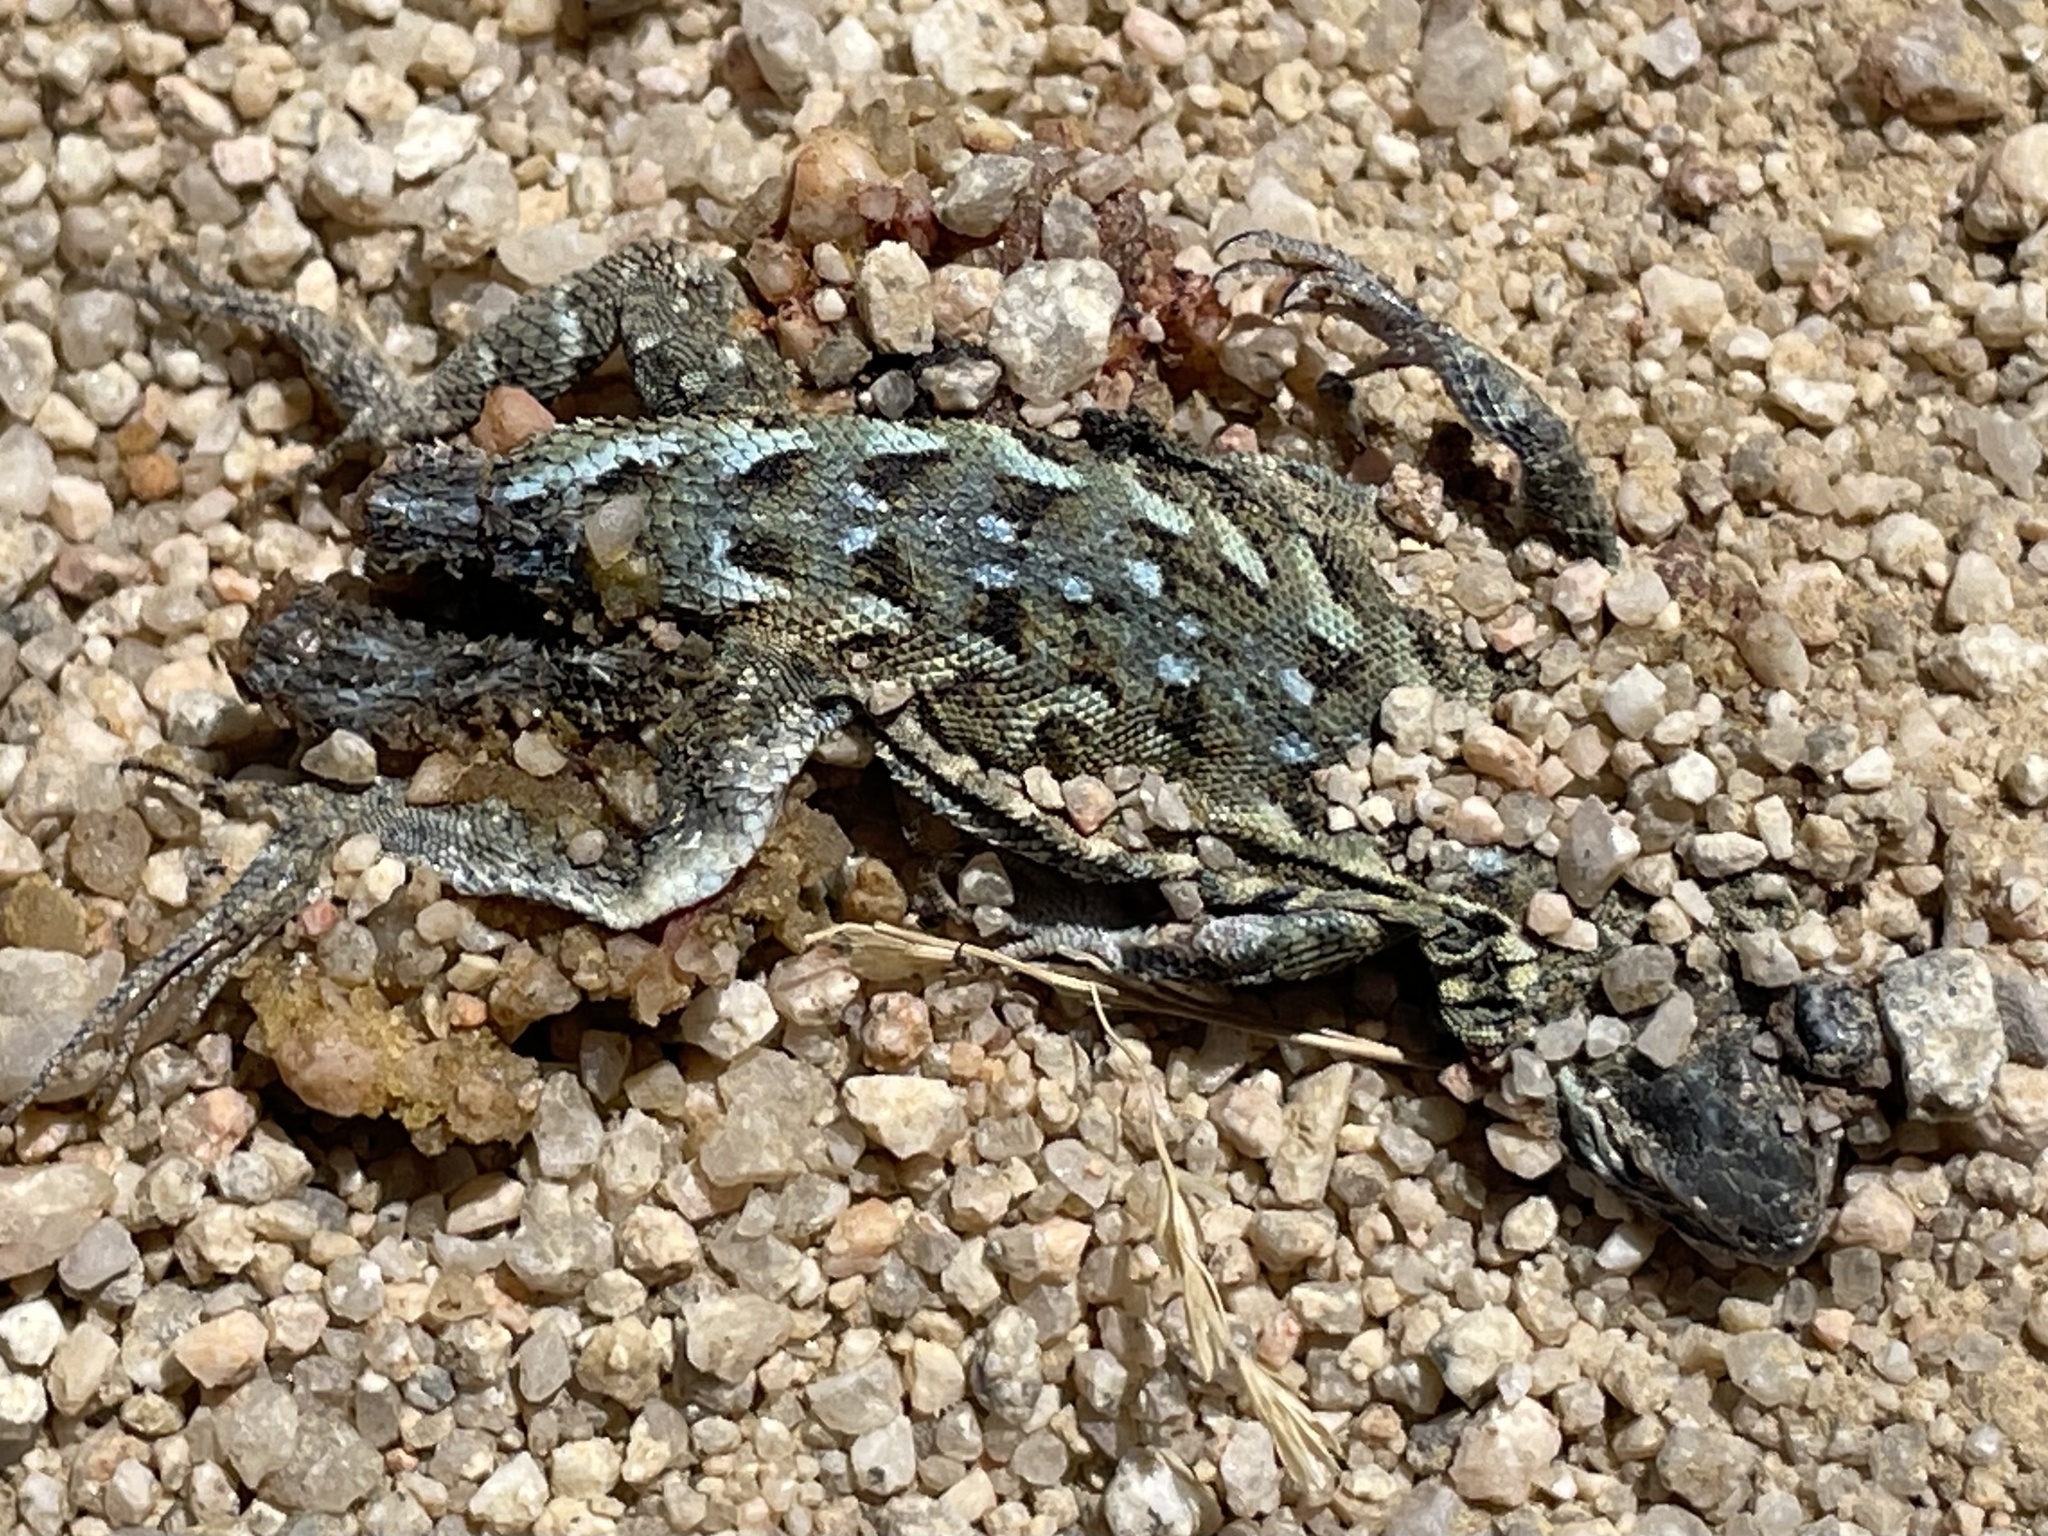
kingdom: Animalia
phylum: Chordata
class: Squamata
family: Phrynosomatidae
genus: Uta
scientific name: Uta stansburiana
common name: Side-blotched lizard
